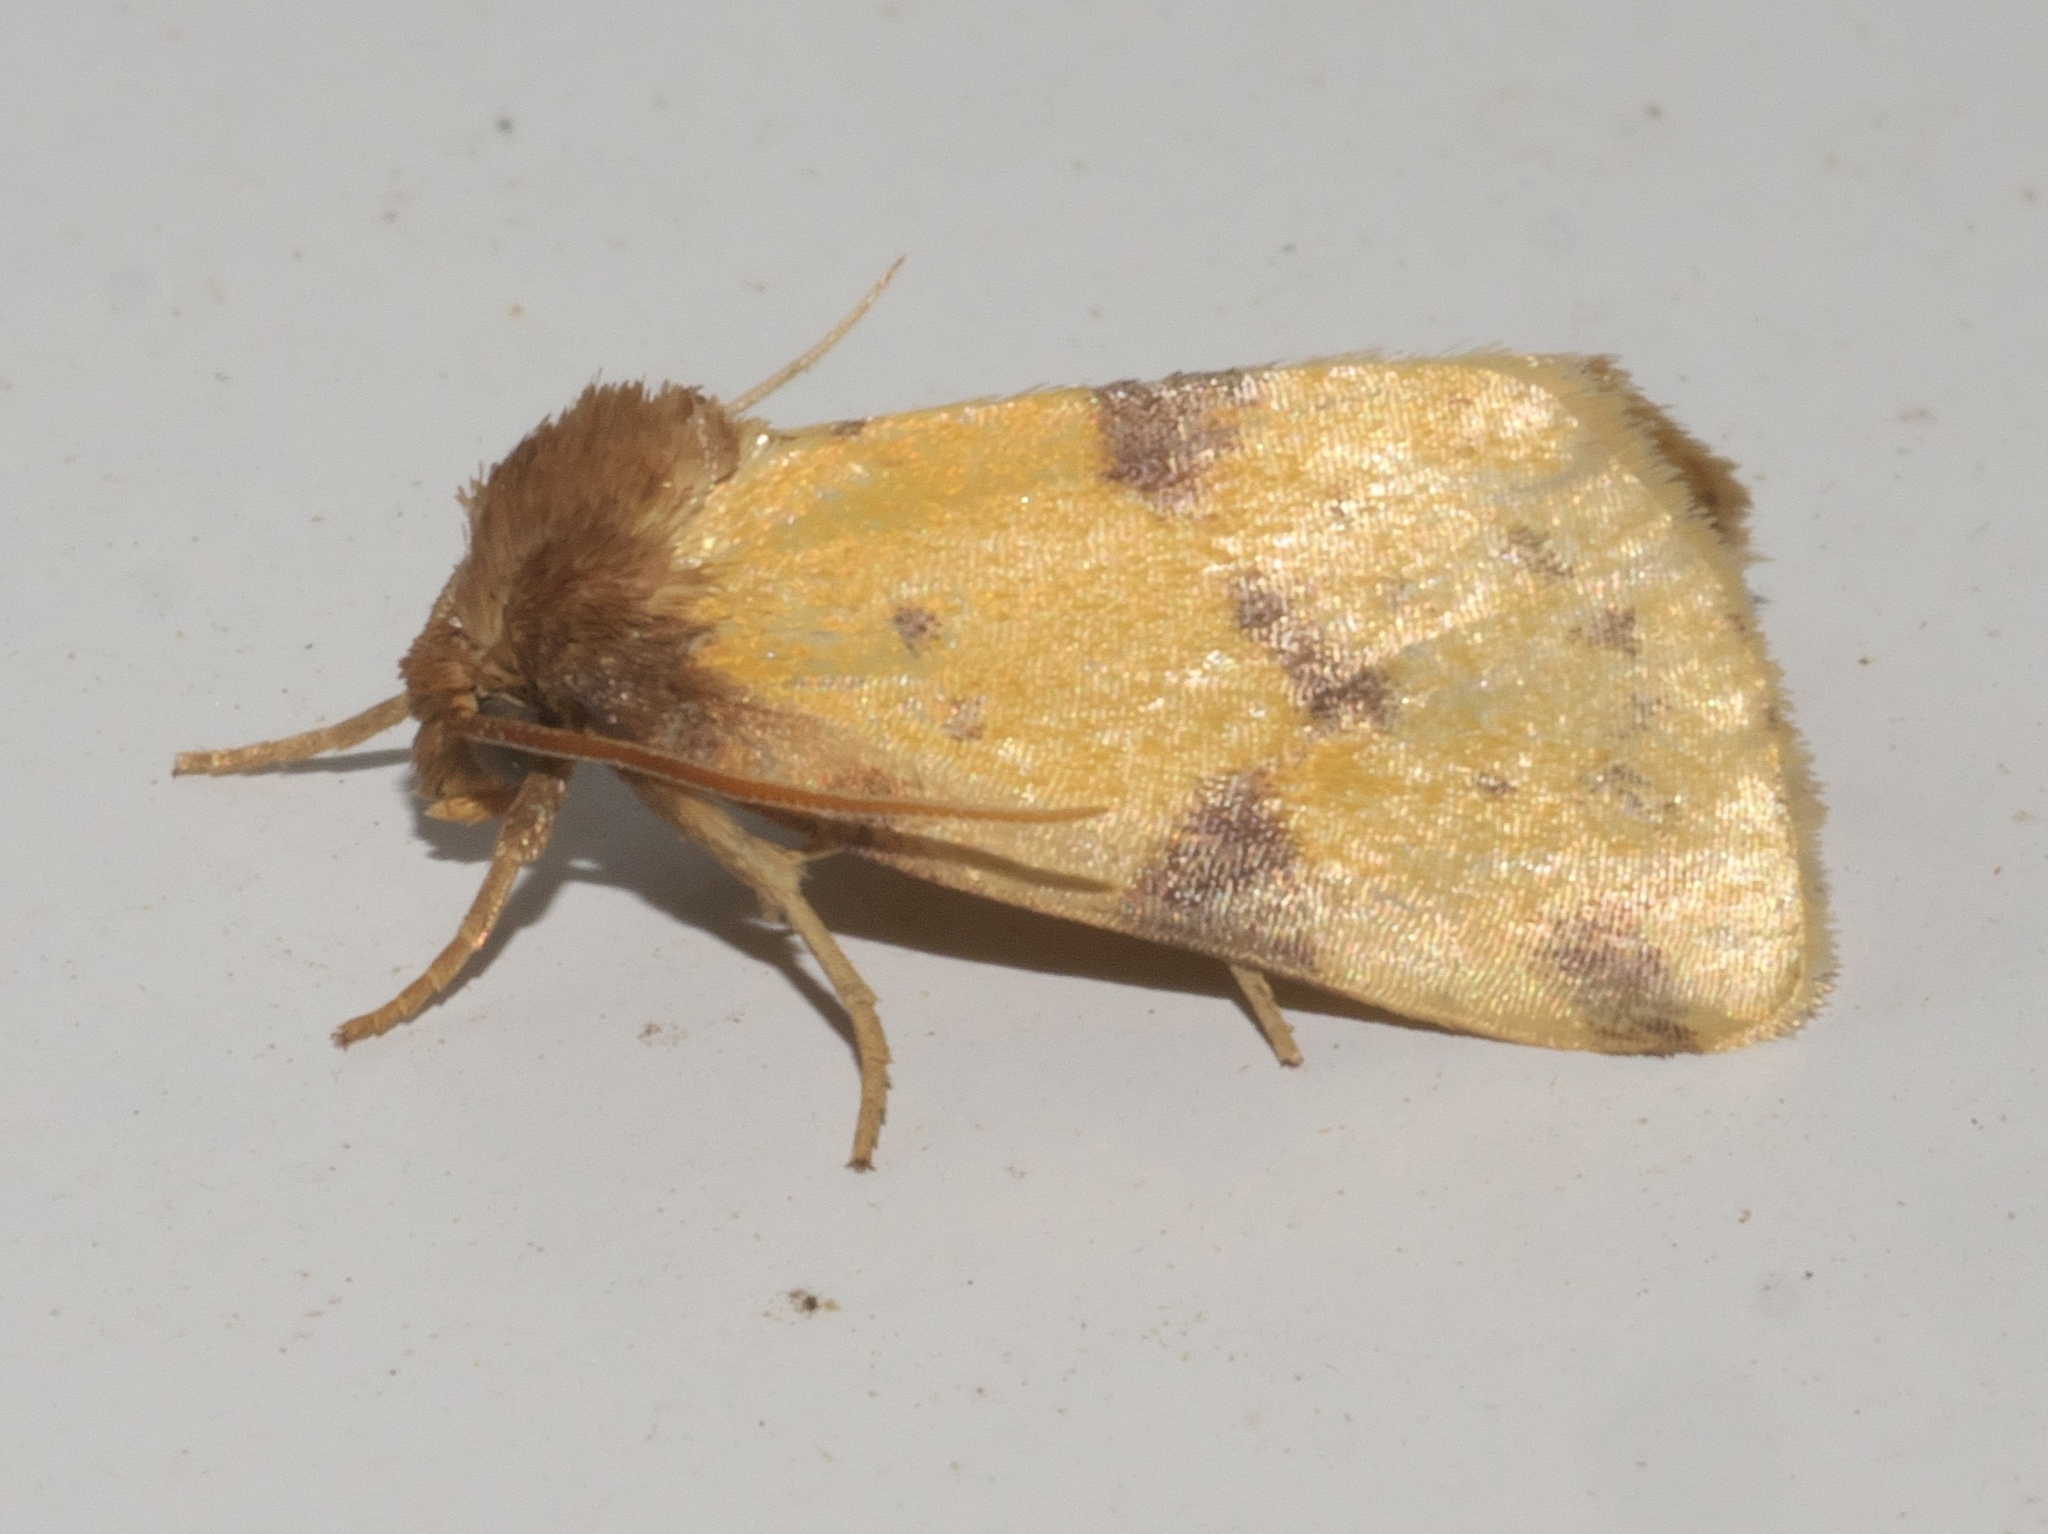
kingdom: Animalia
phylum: Arthropoda
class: Insecta
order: Lepidoptera
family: Noctuidae
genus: Azenia
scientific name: Azenia obtusa
